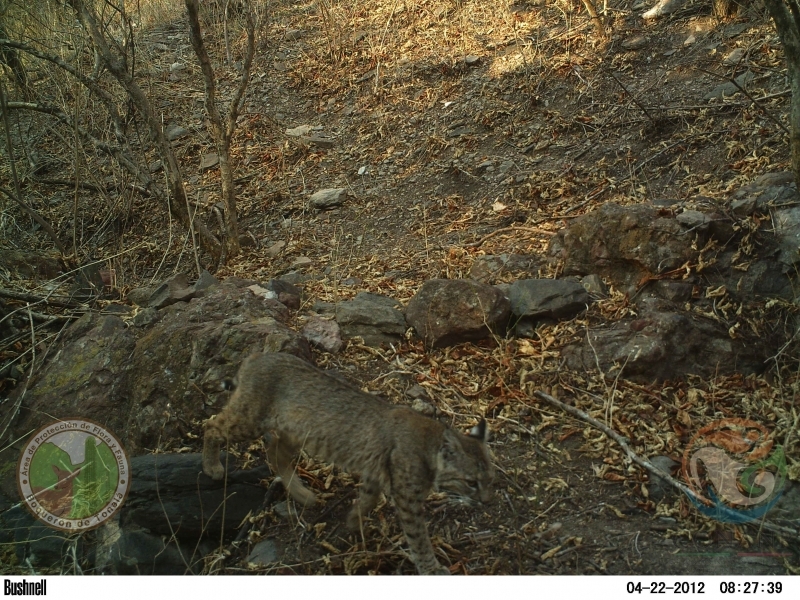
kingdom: Animalia
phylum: Chordata
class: Mammalia
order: Carnivora
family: Felidae
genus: Lynx
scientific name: Lynx rufus
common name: Bobcat
